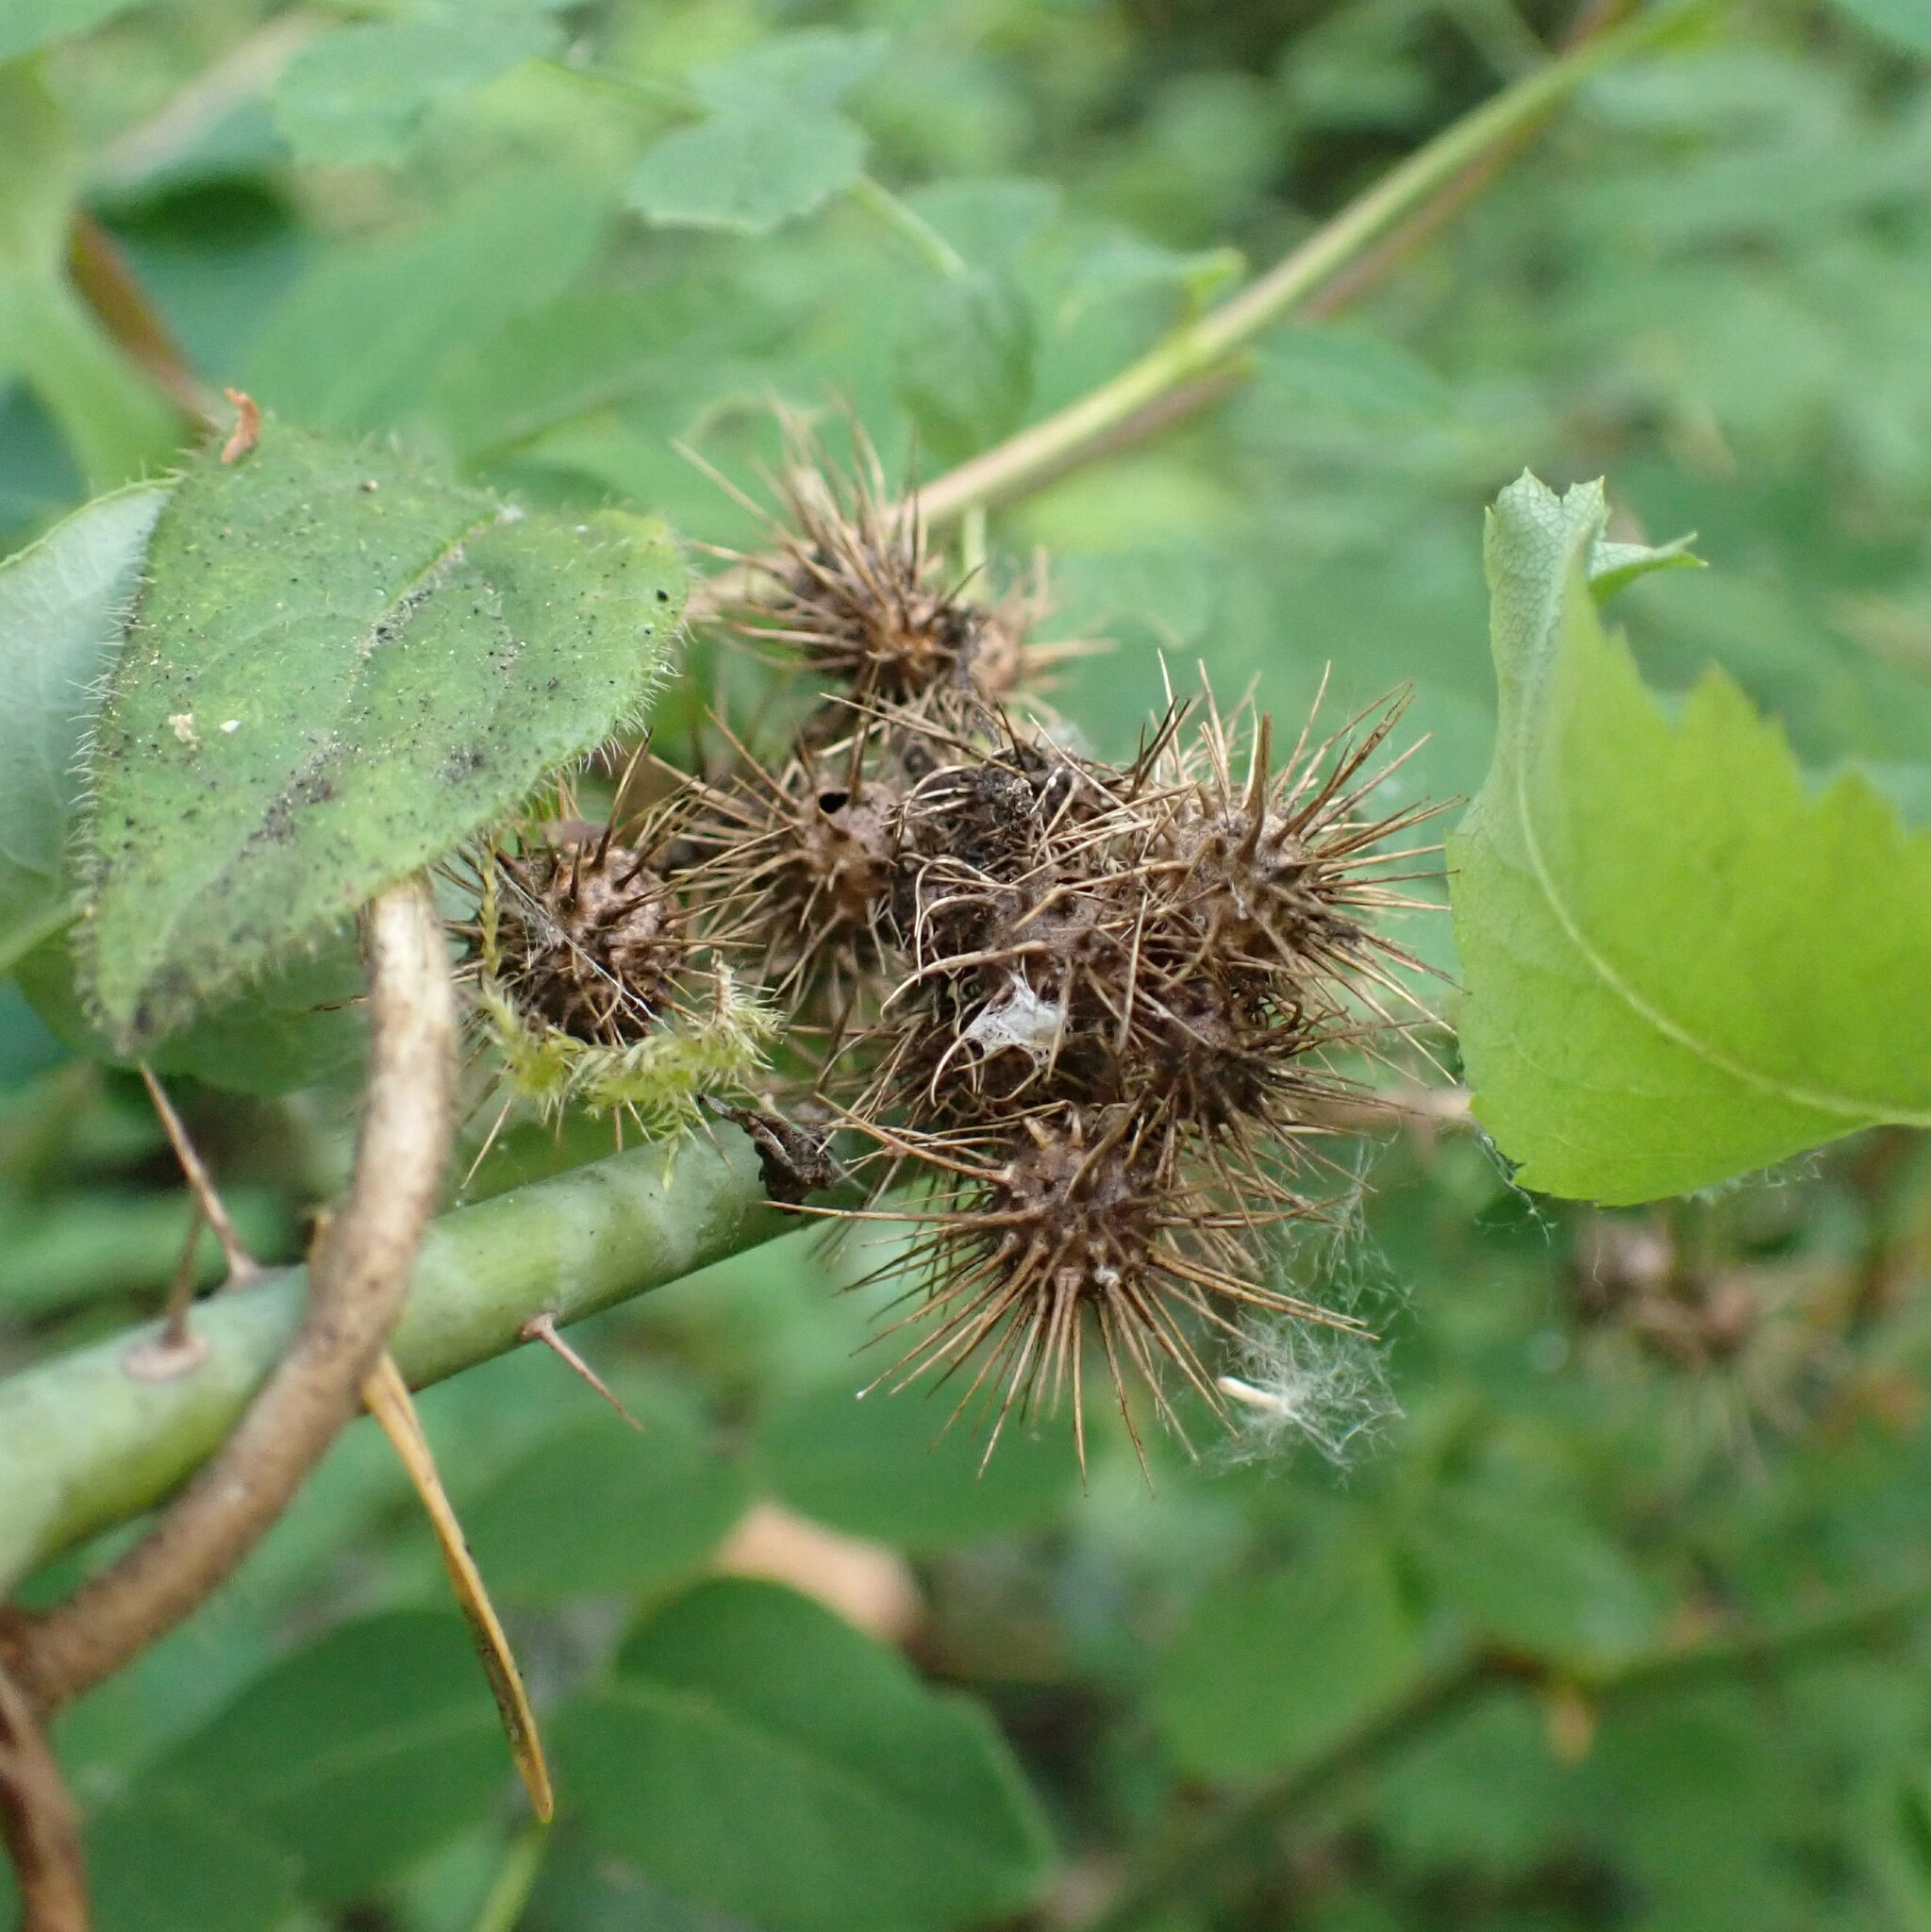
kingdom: Animalia
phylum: Arthropoda
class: Insecta
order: Hymenoptera
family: Cynipidae
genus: Diplolepis
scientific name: Diplolepis bicolor
